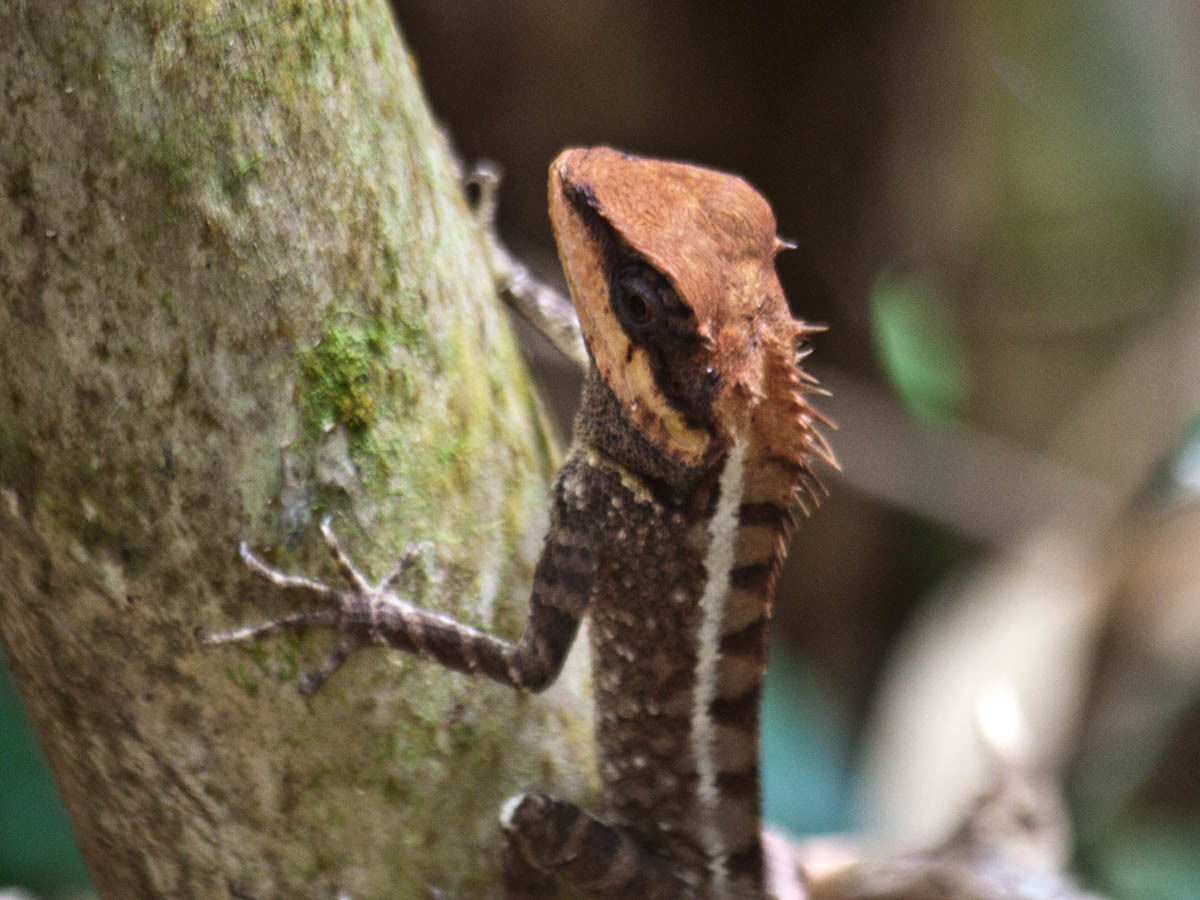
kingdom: Animalia
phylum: Chordata
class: Squamata
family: Agamidae
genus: Calotes
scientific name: Calotes emma
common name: Thailand bloodsucker
